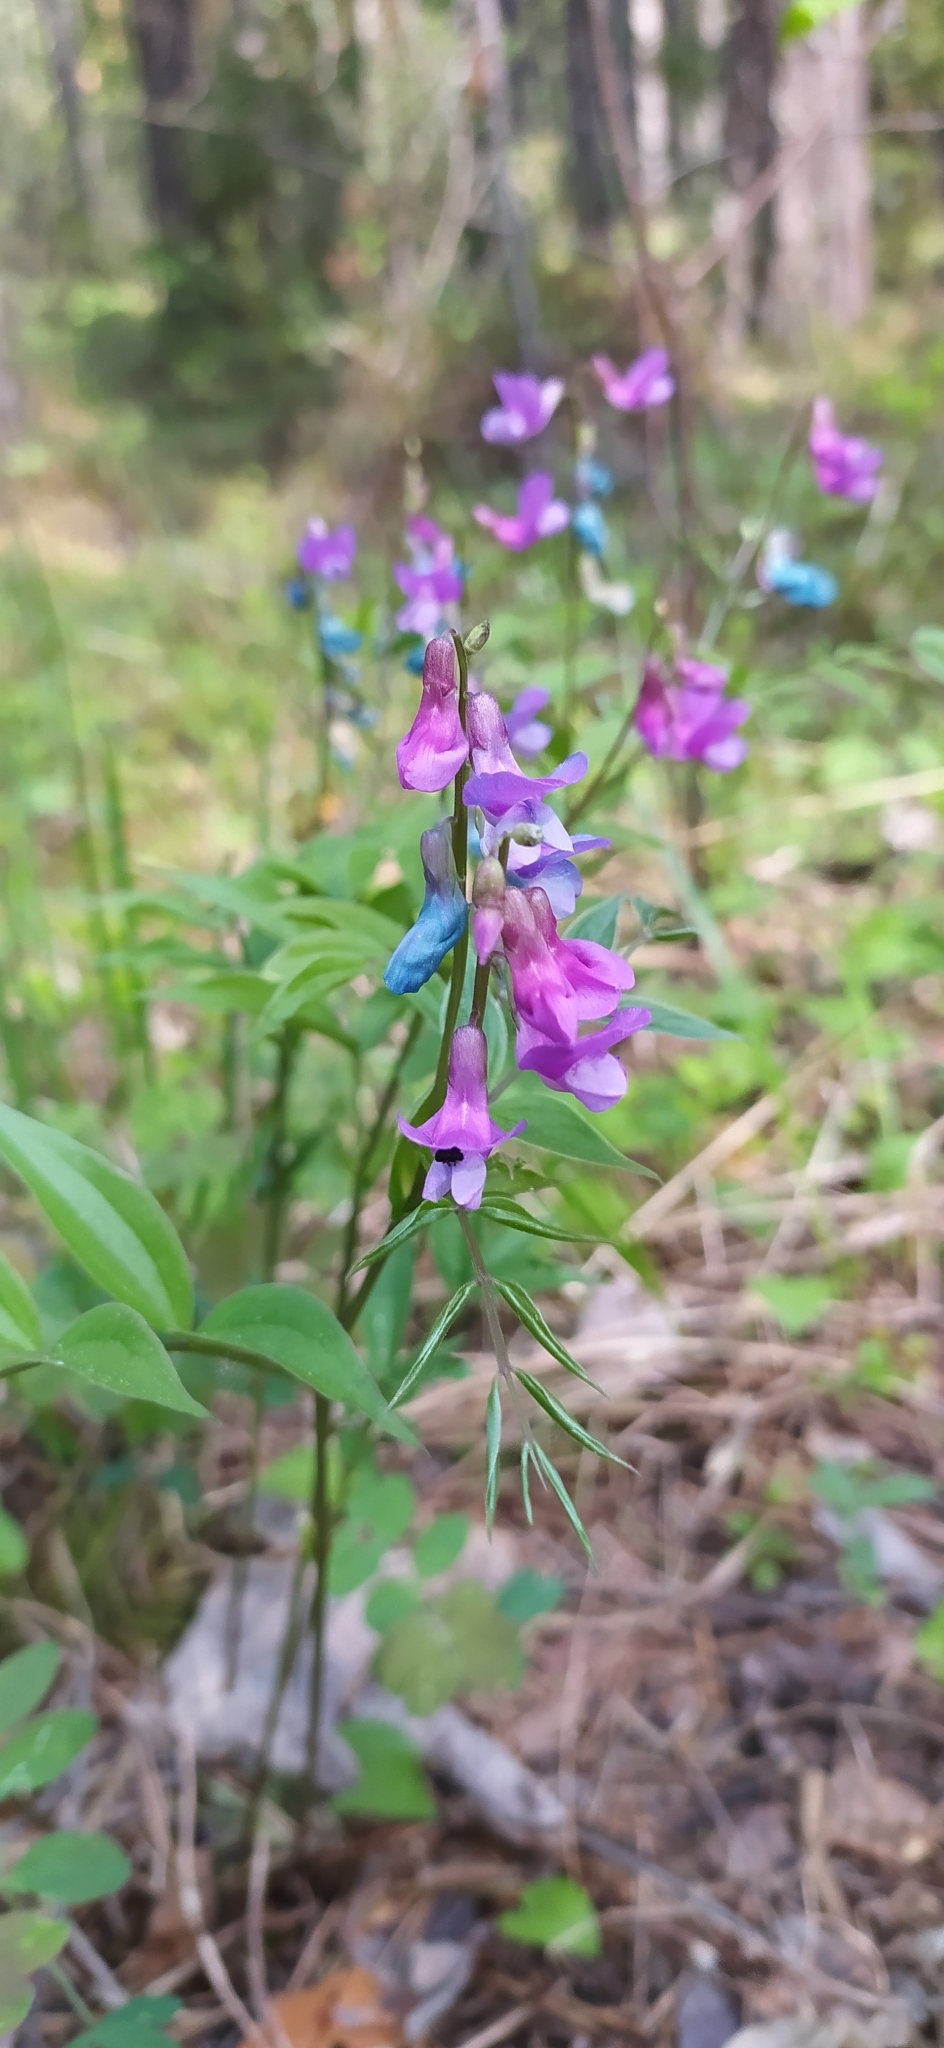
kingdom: Plantae
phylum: Tracheophyta
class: Magnoliopsida
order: Fabales
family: Fabaceae
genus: Lathyrus
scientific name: Lathyrus vernus
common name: Spring pea
